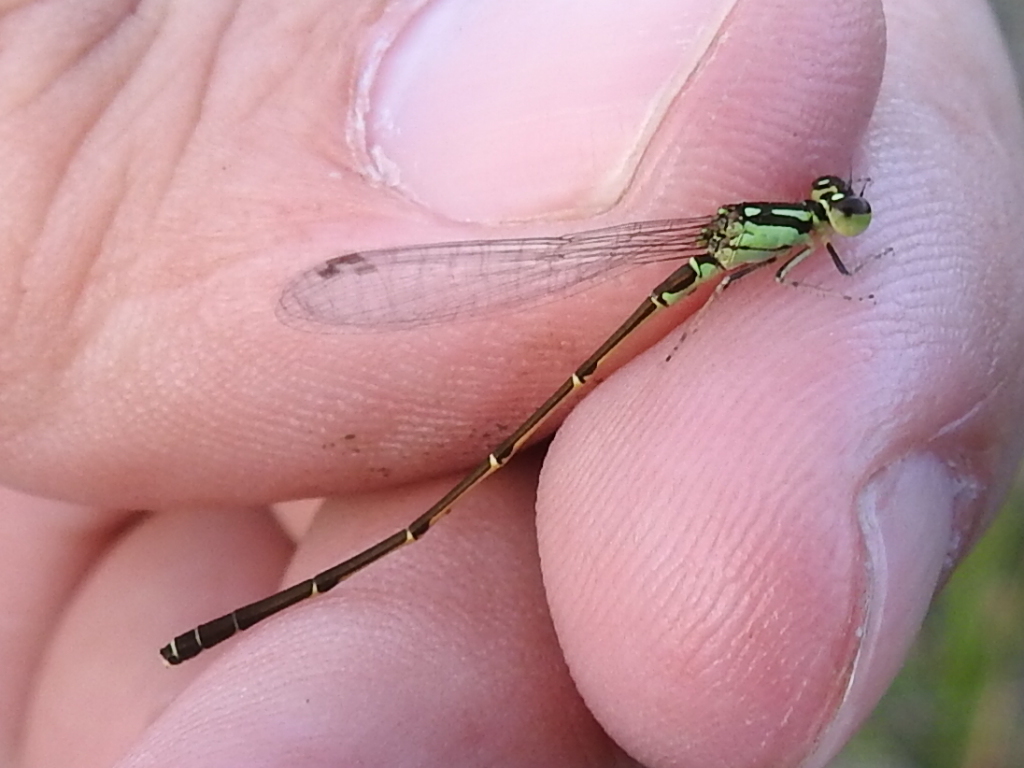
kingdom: Animalia
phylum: Arthropoda
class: Insecta
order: Odonata
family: Coenagrionidae
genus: Ischnura
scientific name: Ischnura posita
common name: Fragile forktail
